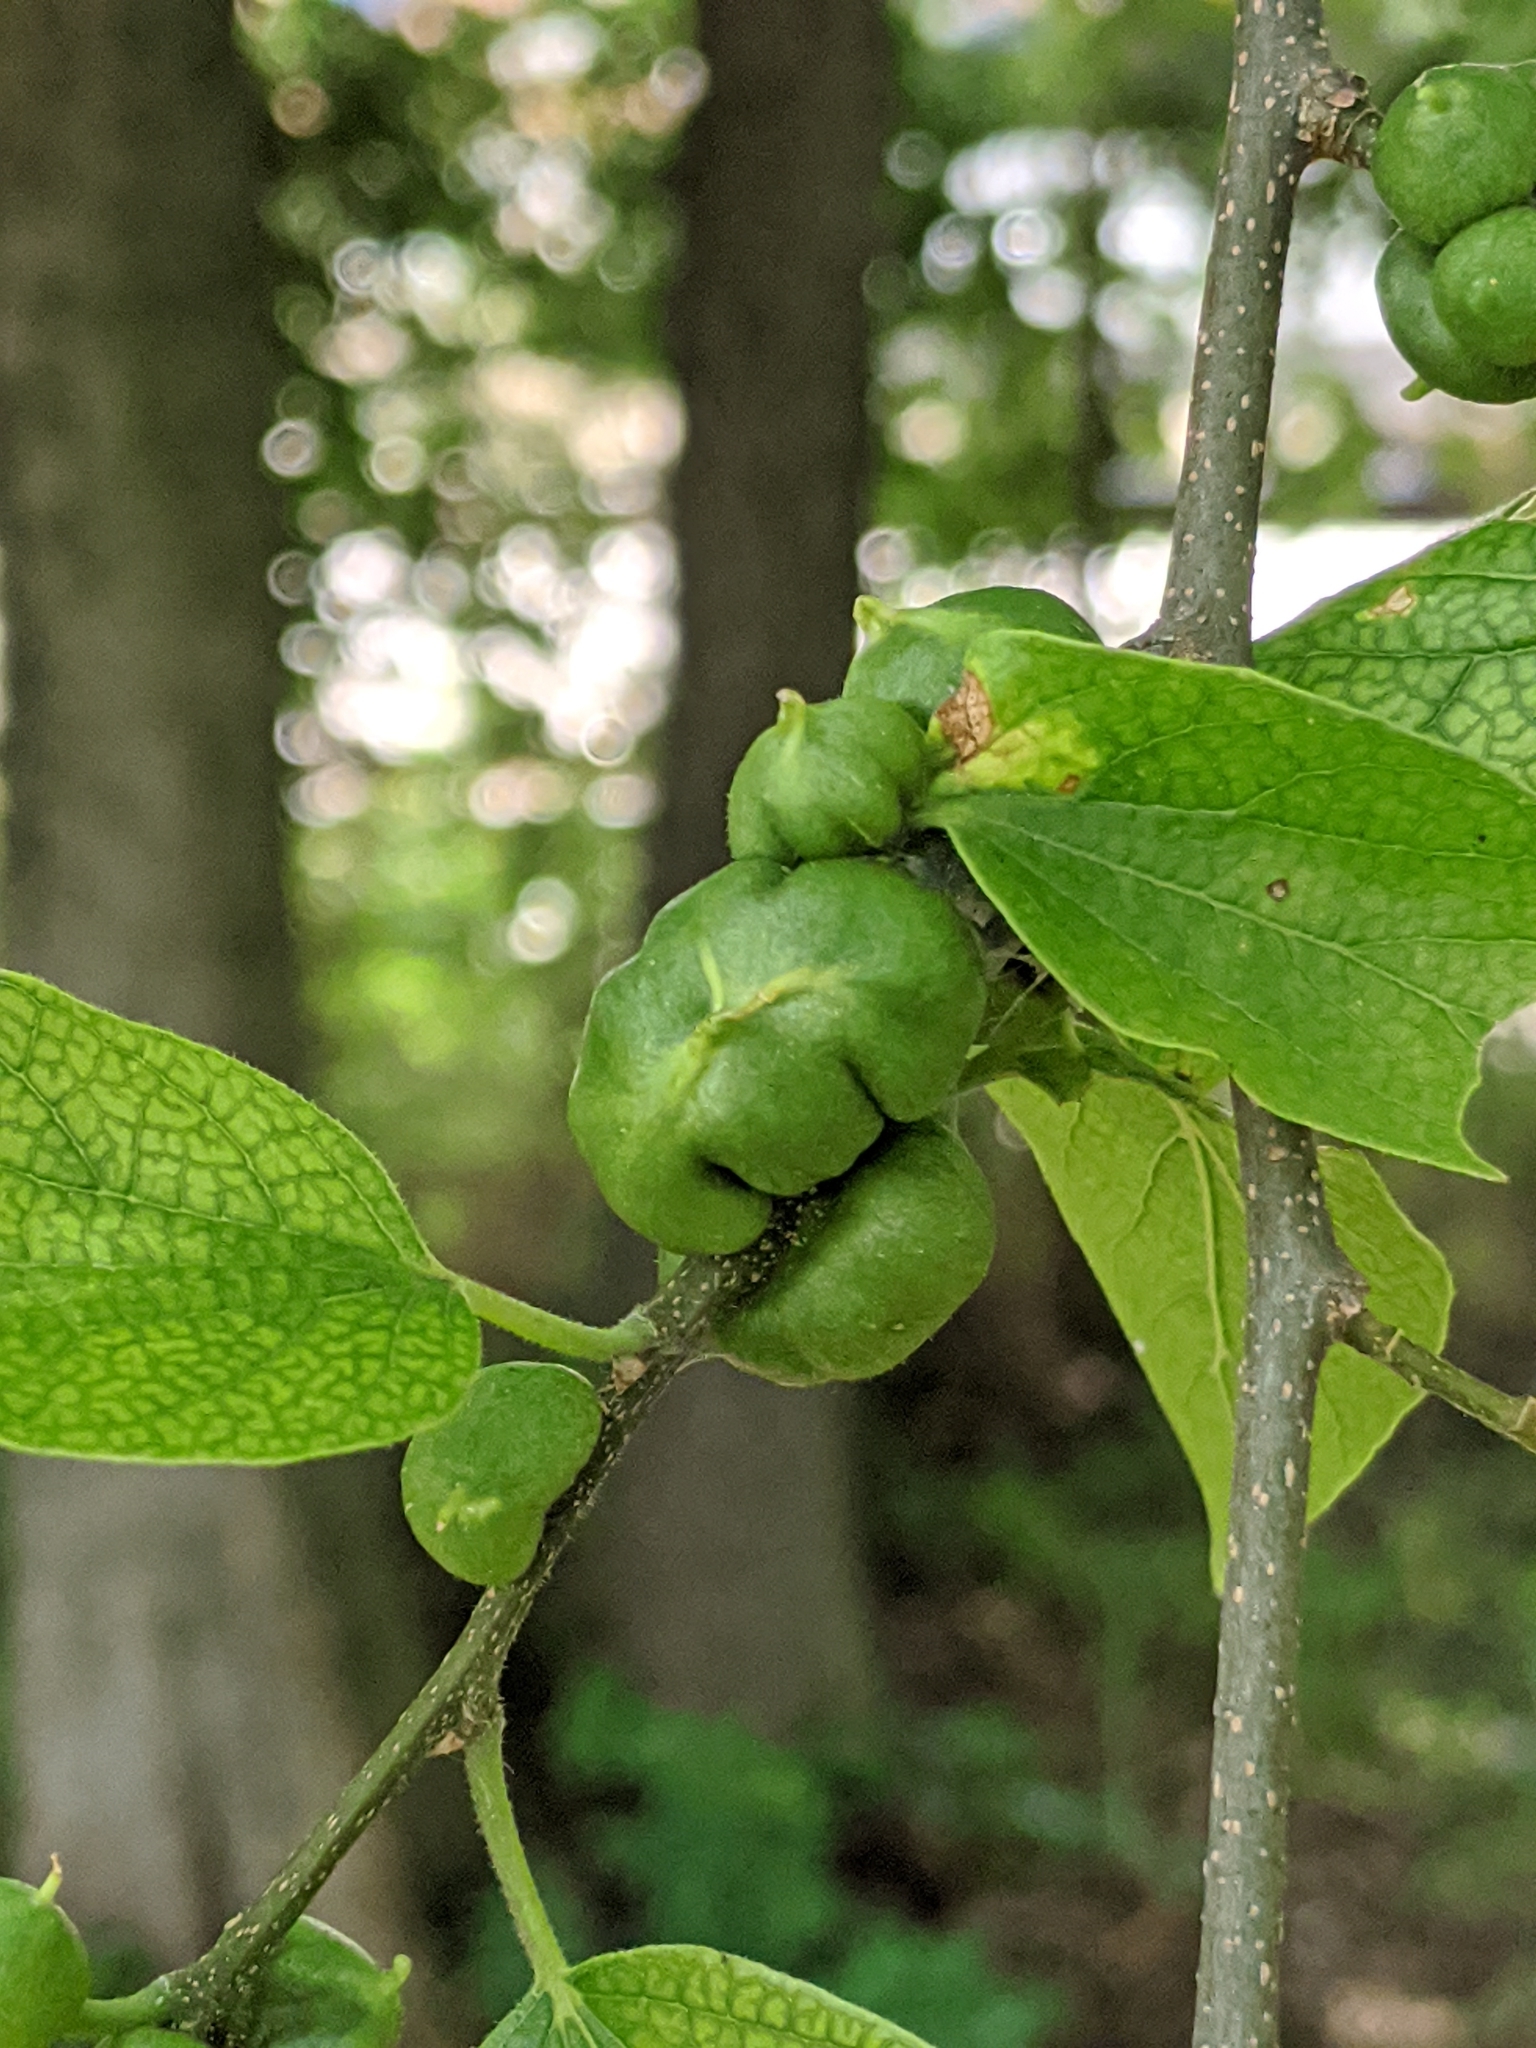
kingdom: Animalia
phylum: Arthropoda
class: Insecta
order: Diptera
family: Cecidomyiidae
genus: Celticecis
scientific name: Celticecis connata
